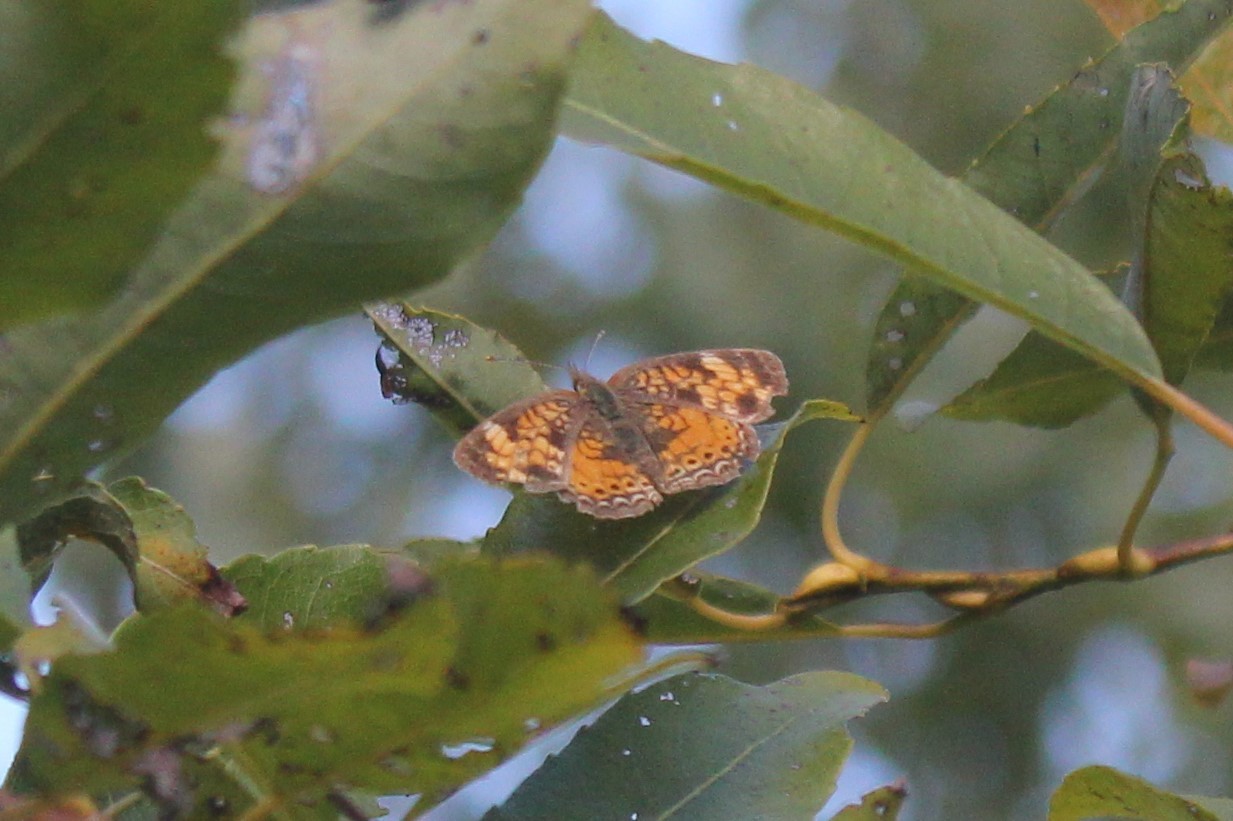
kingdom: Animalia
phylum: Arthropoda
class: Insecta
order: Lepidoptera
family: Nymphalidae
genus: Phyciodes
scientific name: Phyciodes tharos
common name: Pearl crescent
